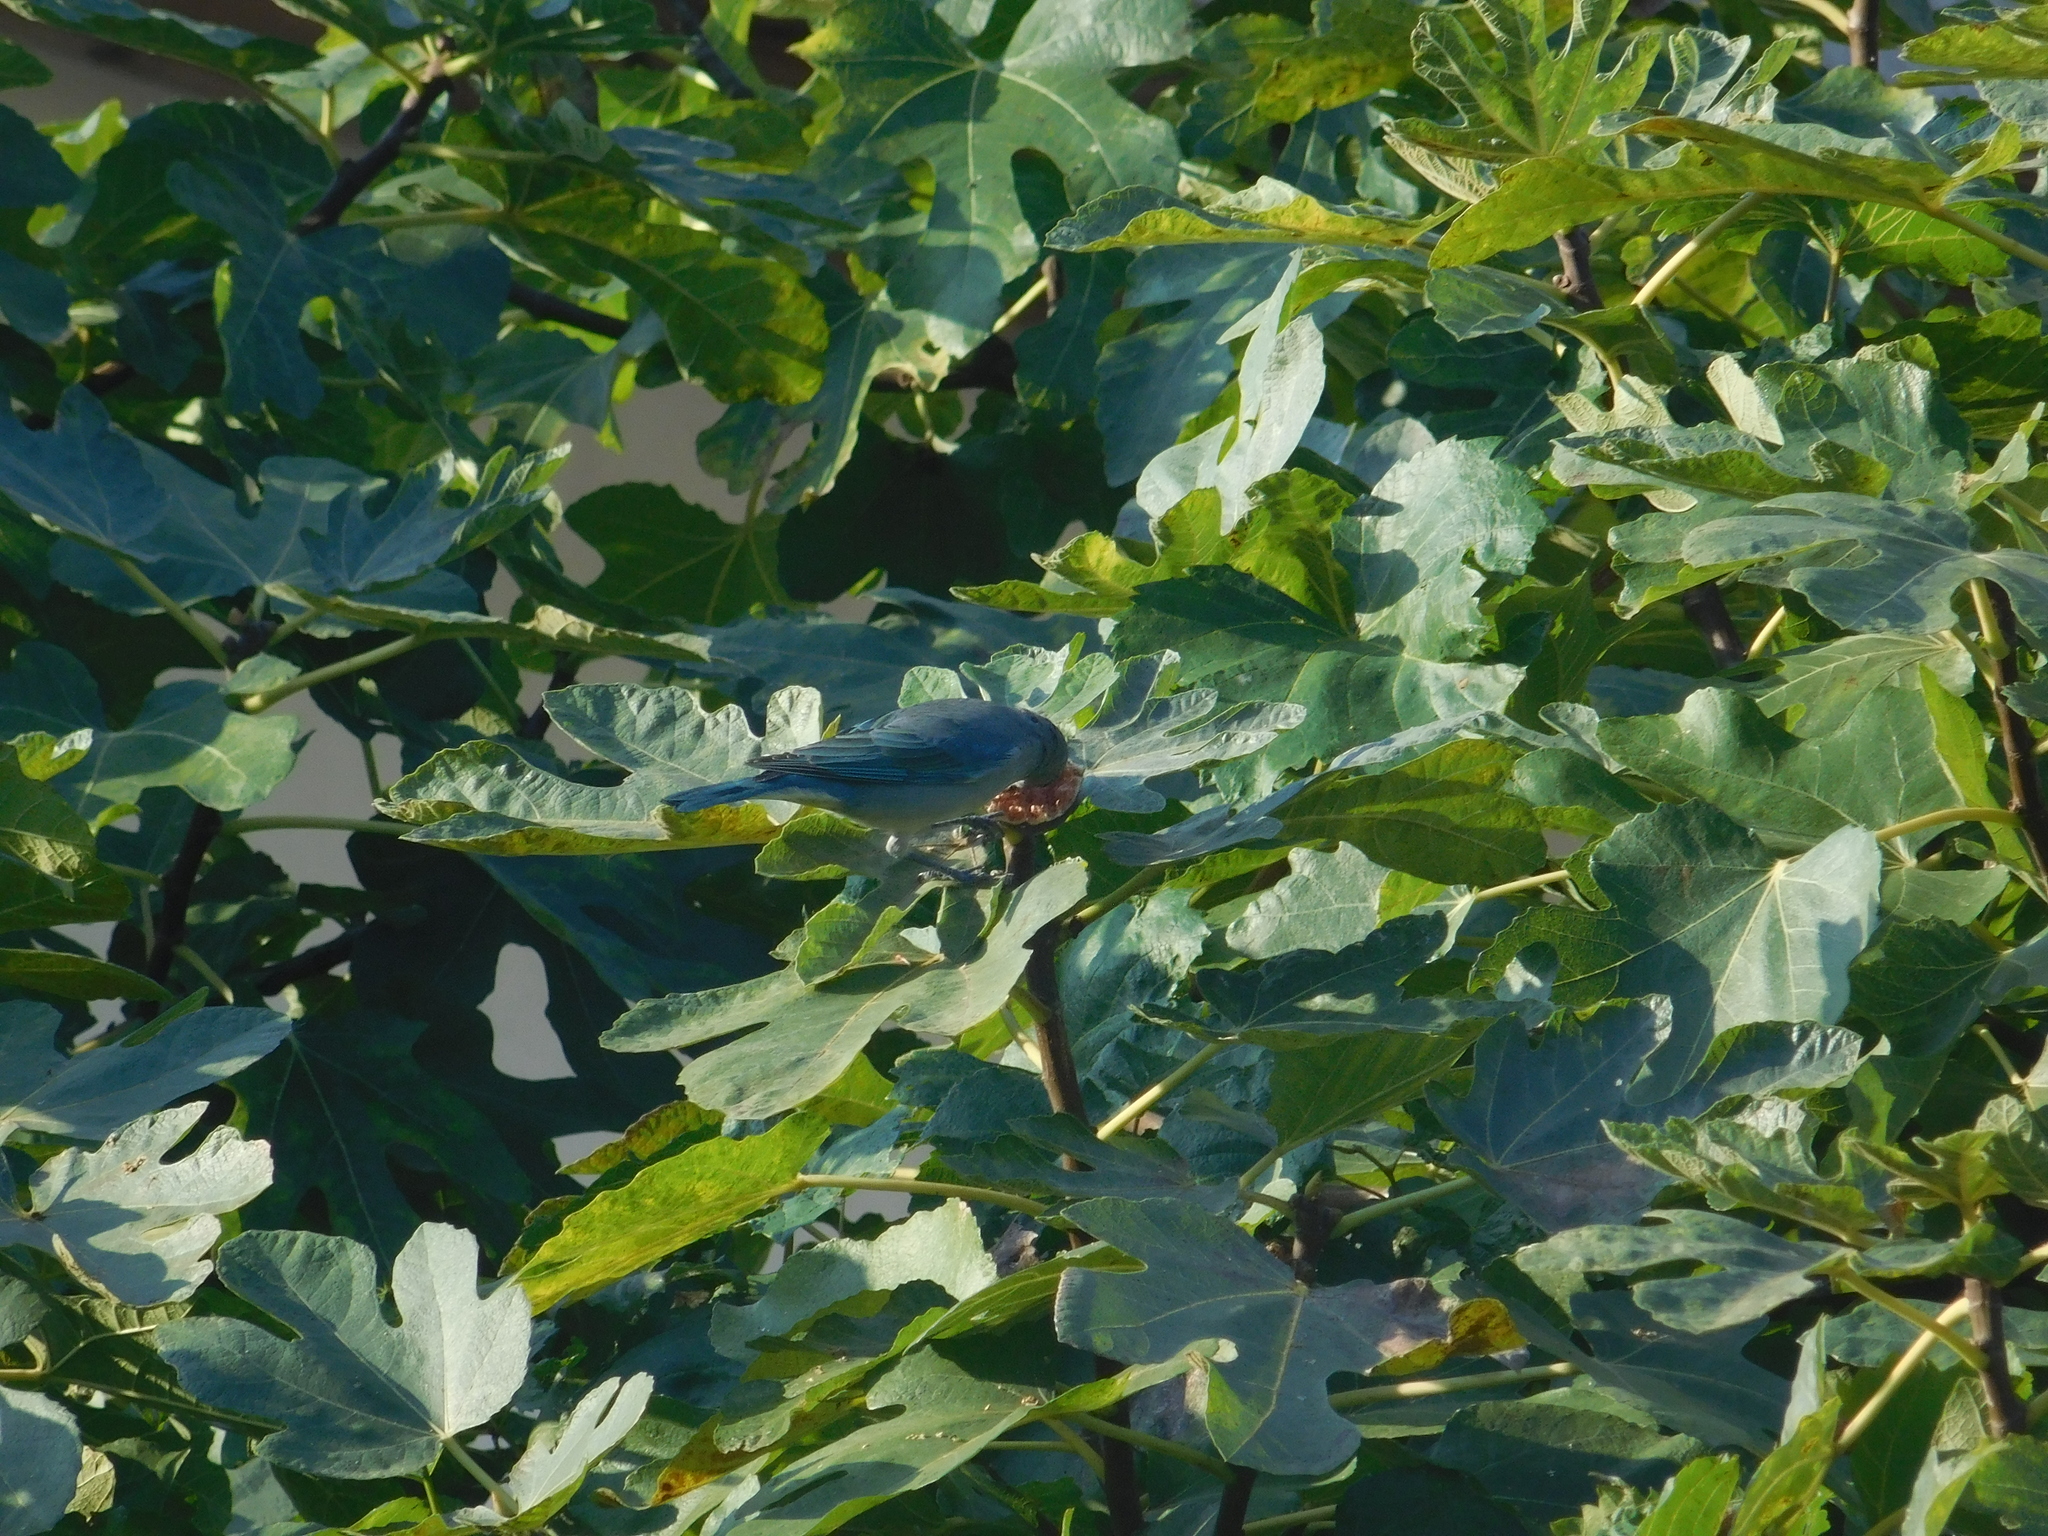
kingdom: Animalia
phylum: Chordata
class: Aves
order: Passeriformes
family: Thraupidae
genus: Thraupis
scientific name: Thraupis sayaca
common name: Sayaca tanager
